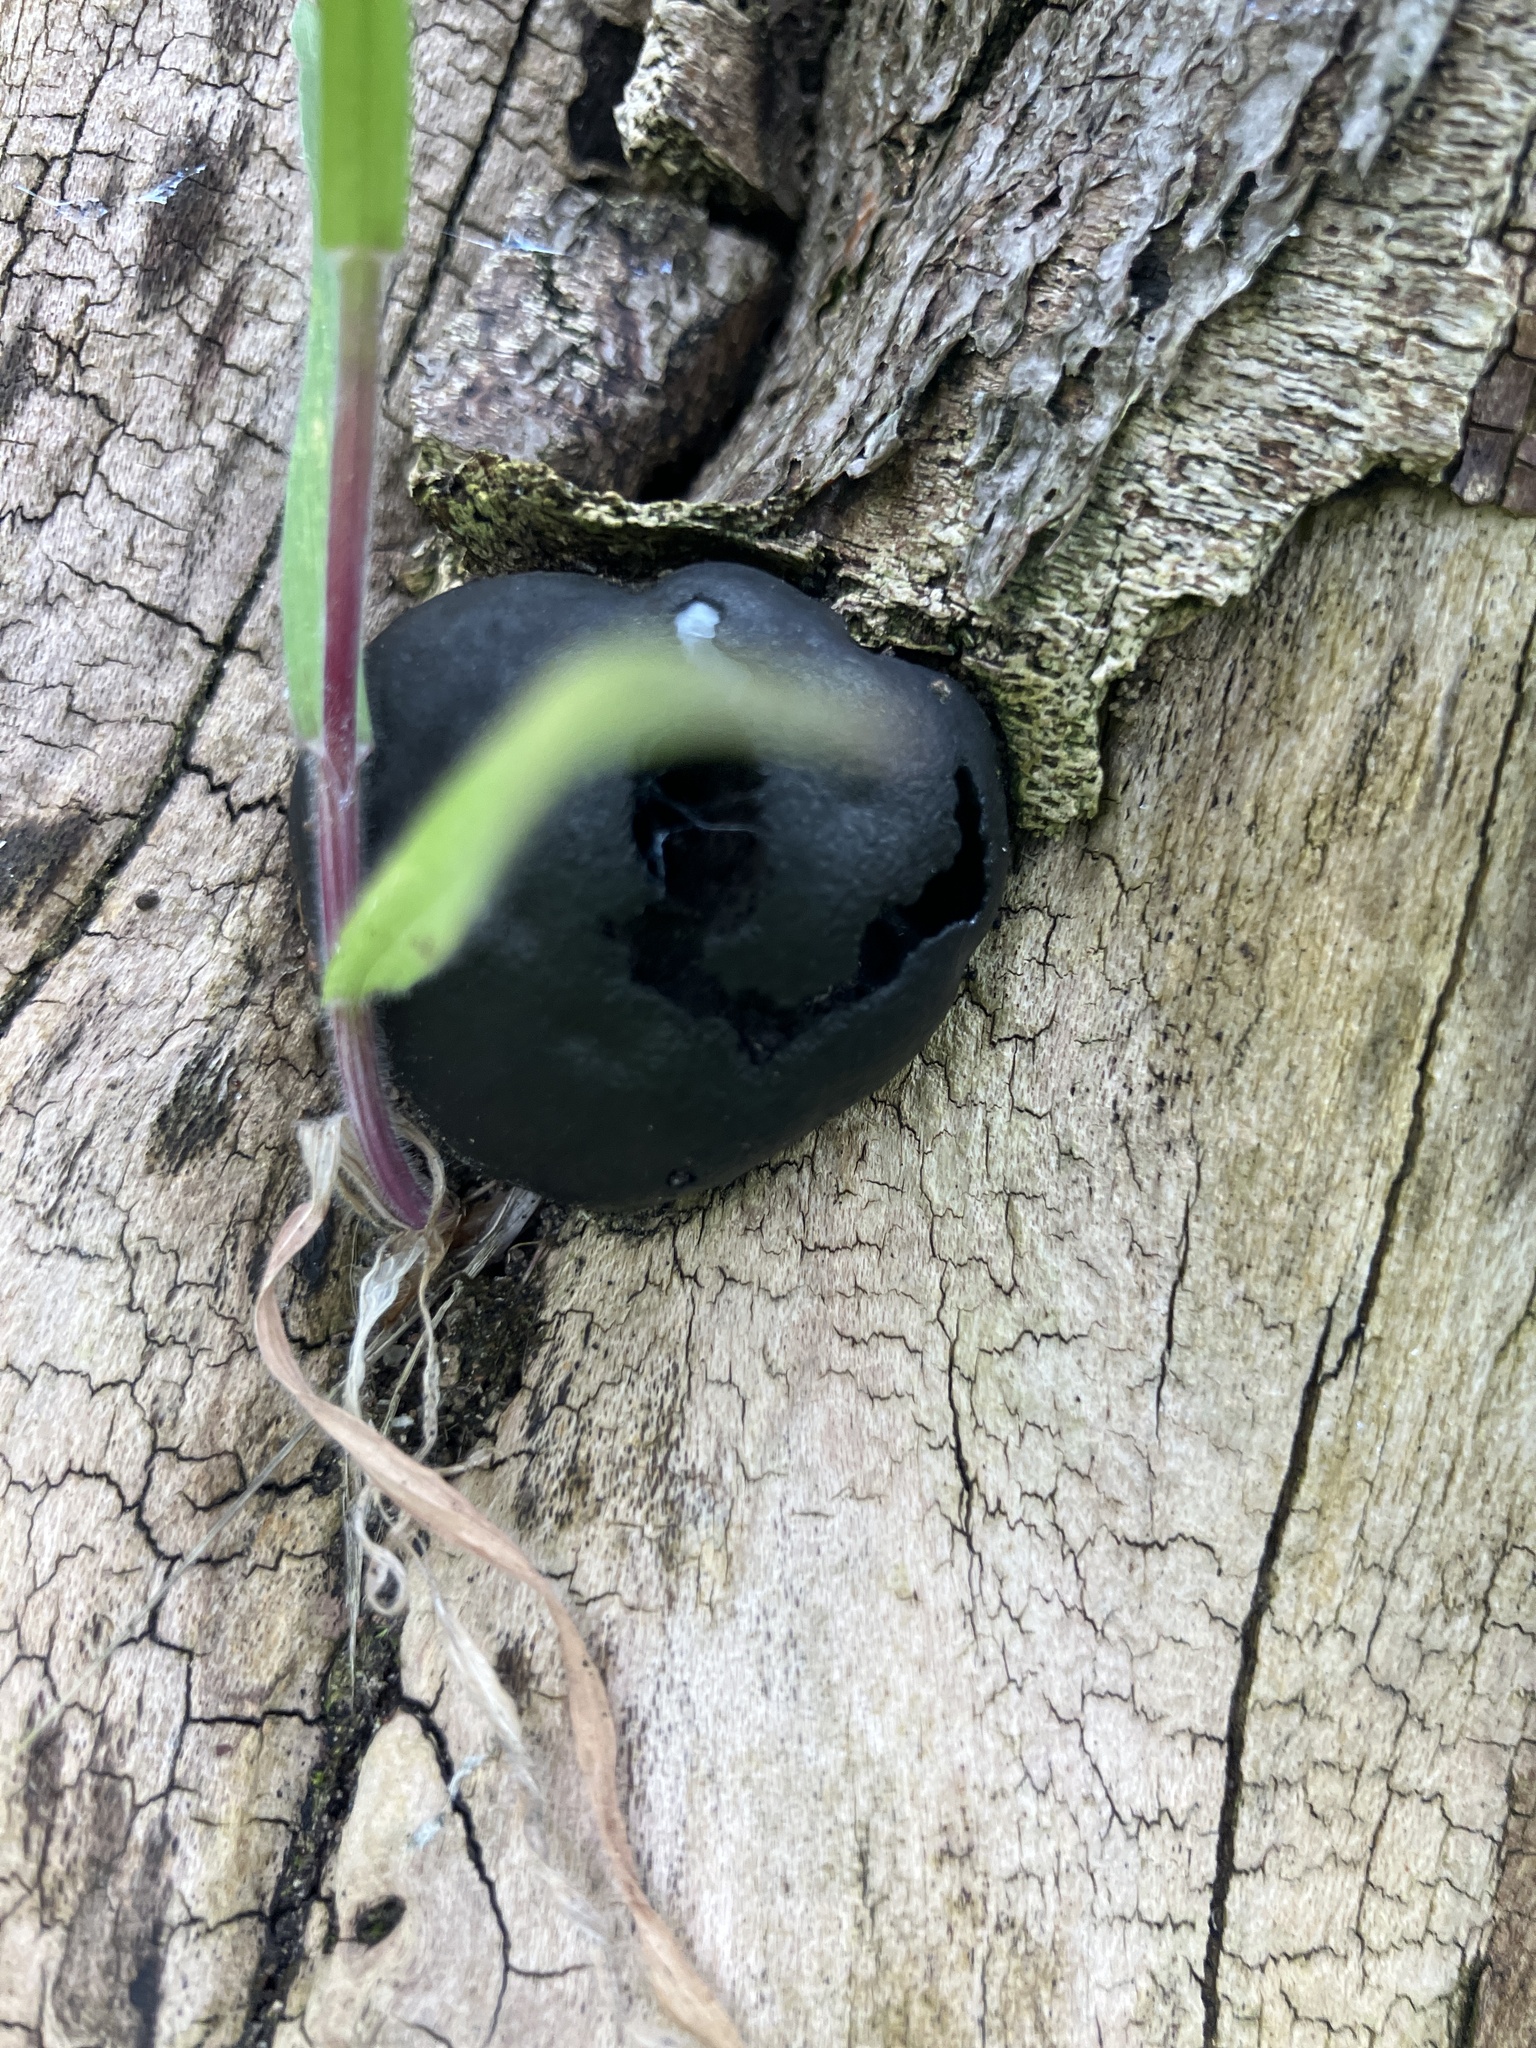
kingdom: Fungi
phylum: Ascomycota
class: Sordariomycetes
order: Xylariales
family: Hypoxylaceae
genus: Daldinia
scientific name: Daldinia concentrica
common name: Cramp balls
